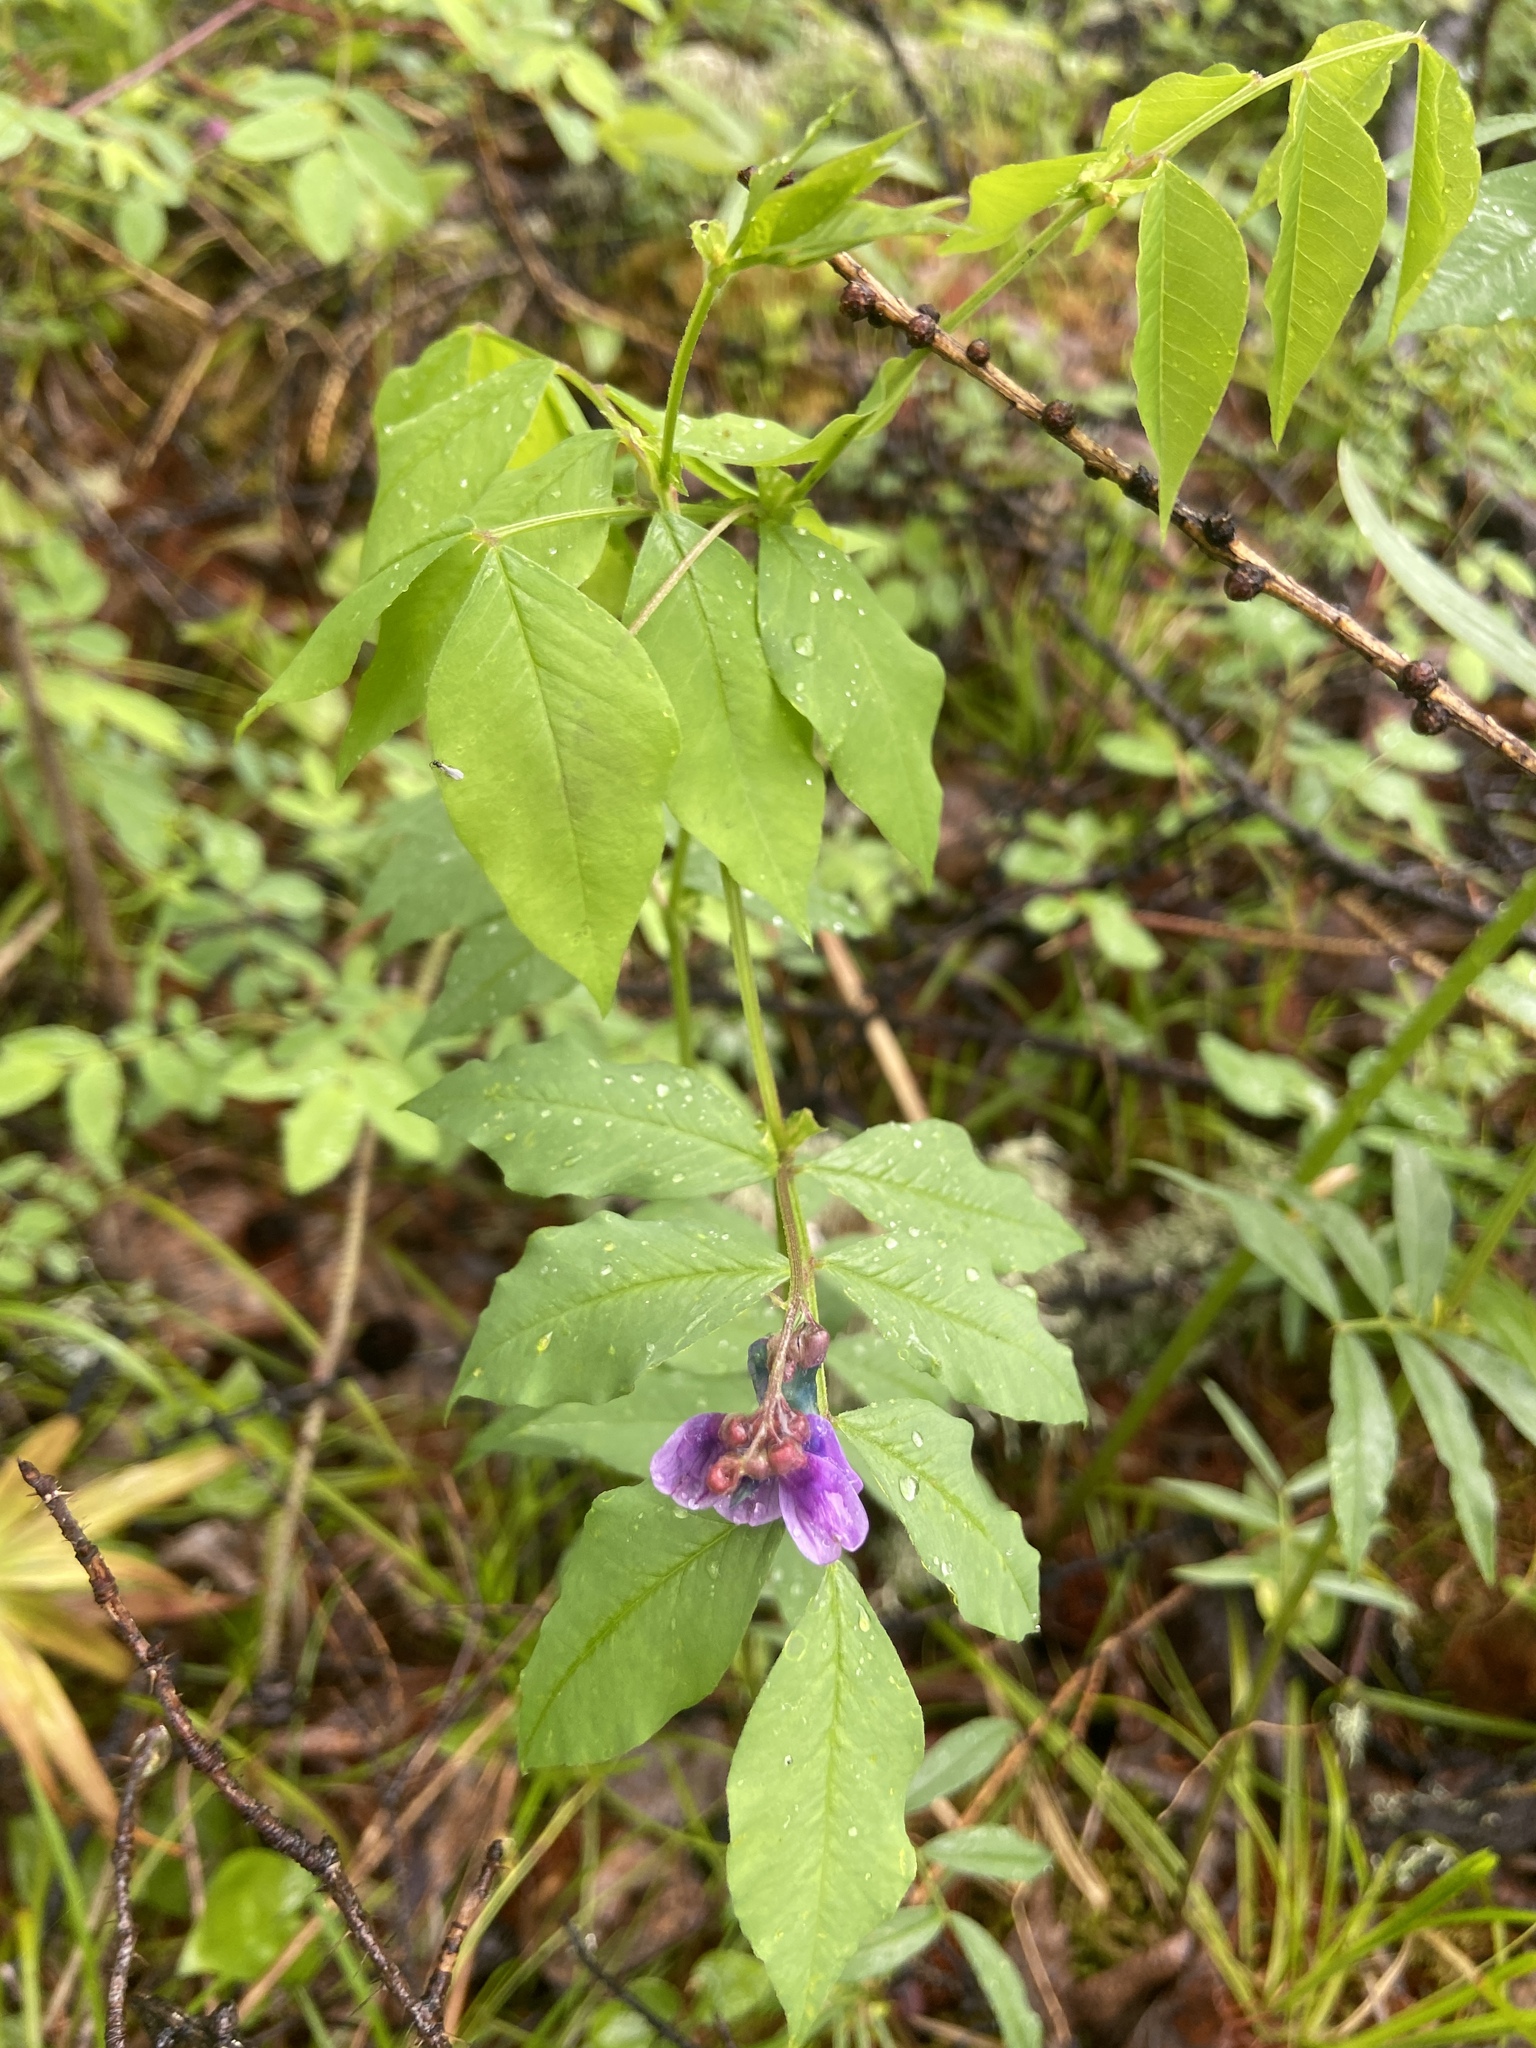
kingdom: Plantae
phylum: Tracheophyta
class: Magnoliopsida
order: Fabales
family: Fabaceae
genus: Vicia
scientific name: Vicia ramuliflora
